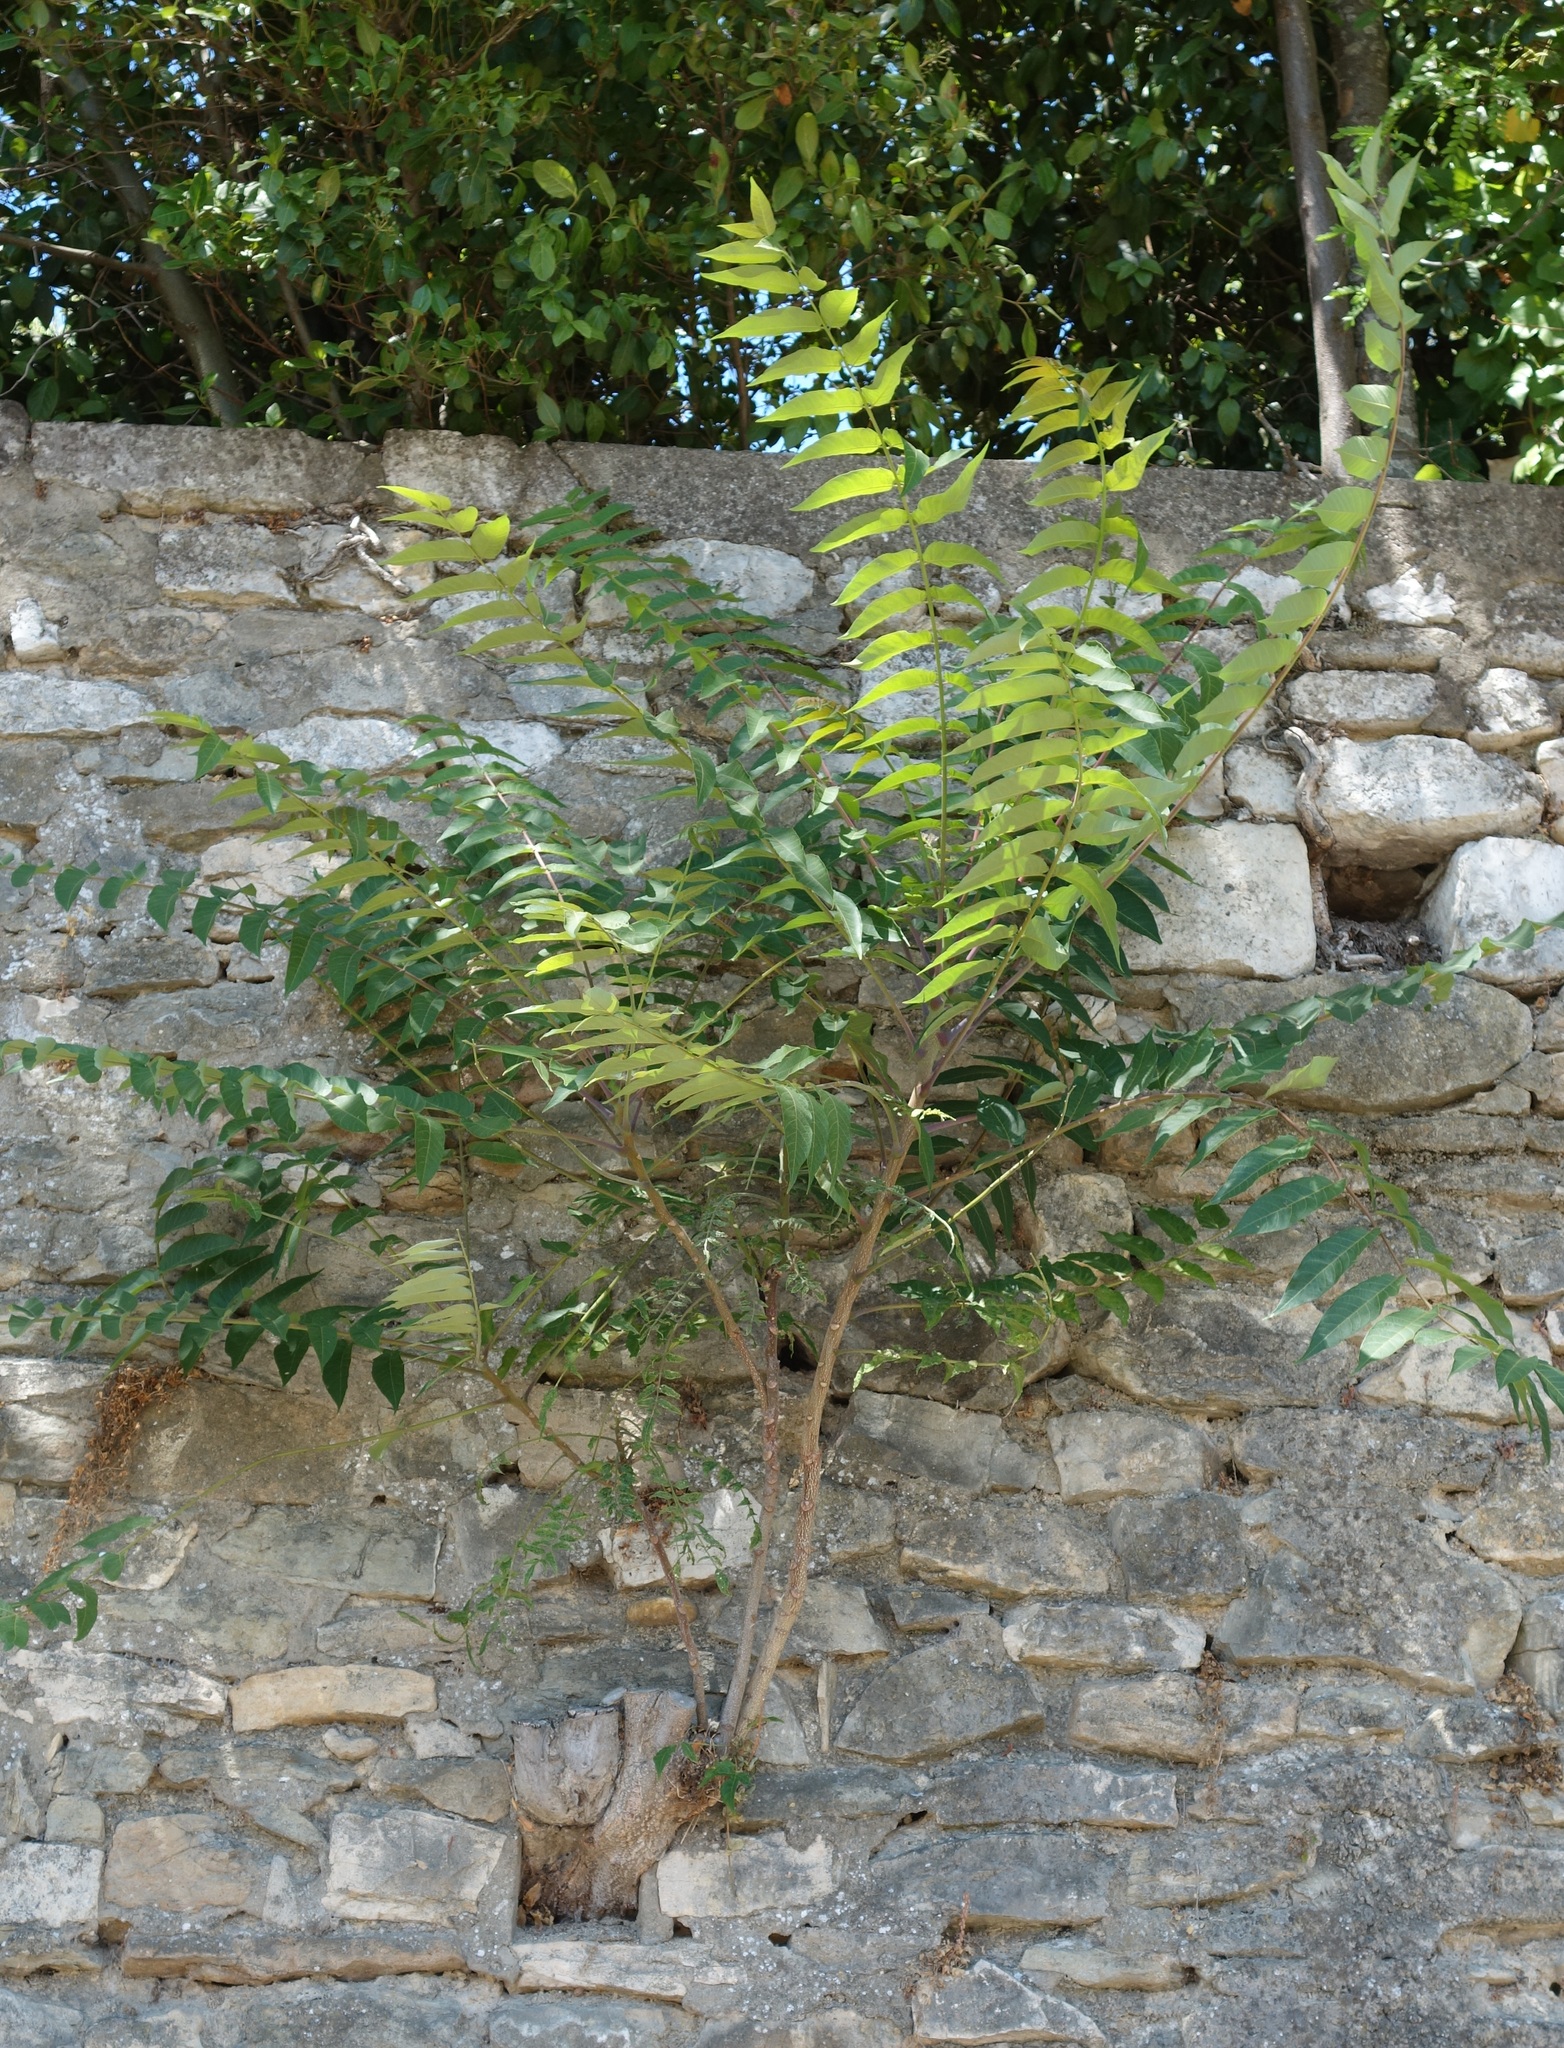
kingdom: Plantae
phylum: Tracheophyta
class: Magnoliopsida
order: Sapindales
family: Simaroubaceae
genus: Ailanthus
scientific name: Ailanthus altissima
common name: Tree-of-heaven
